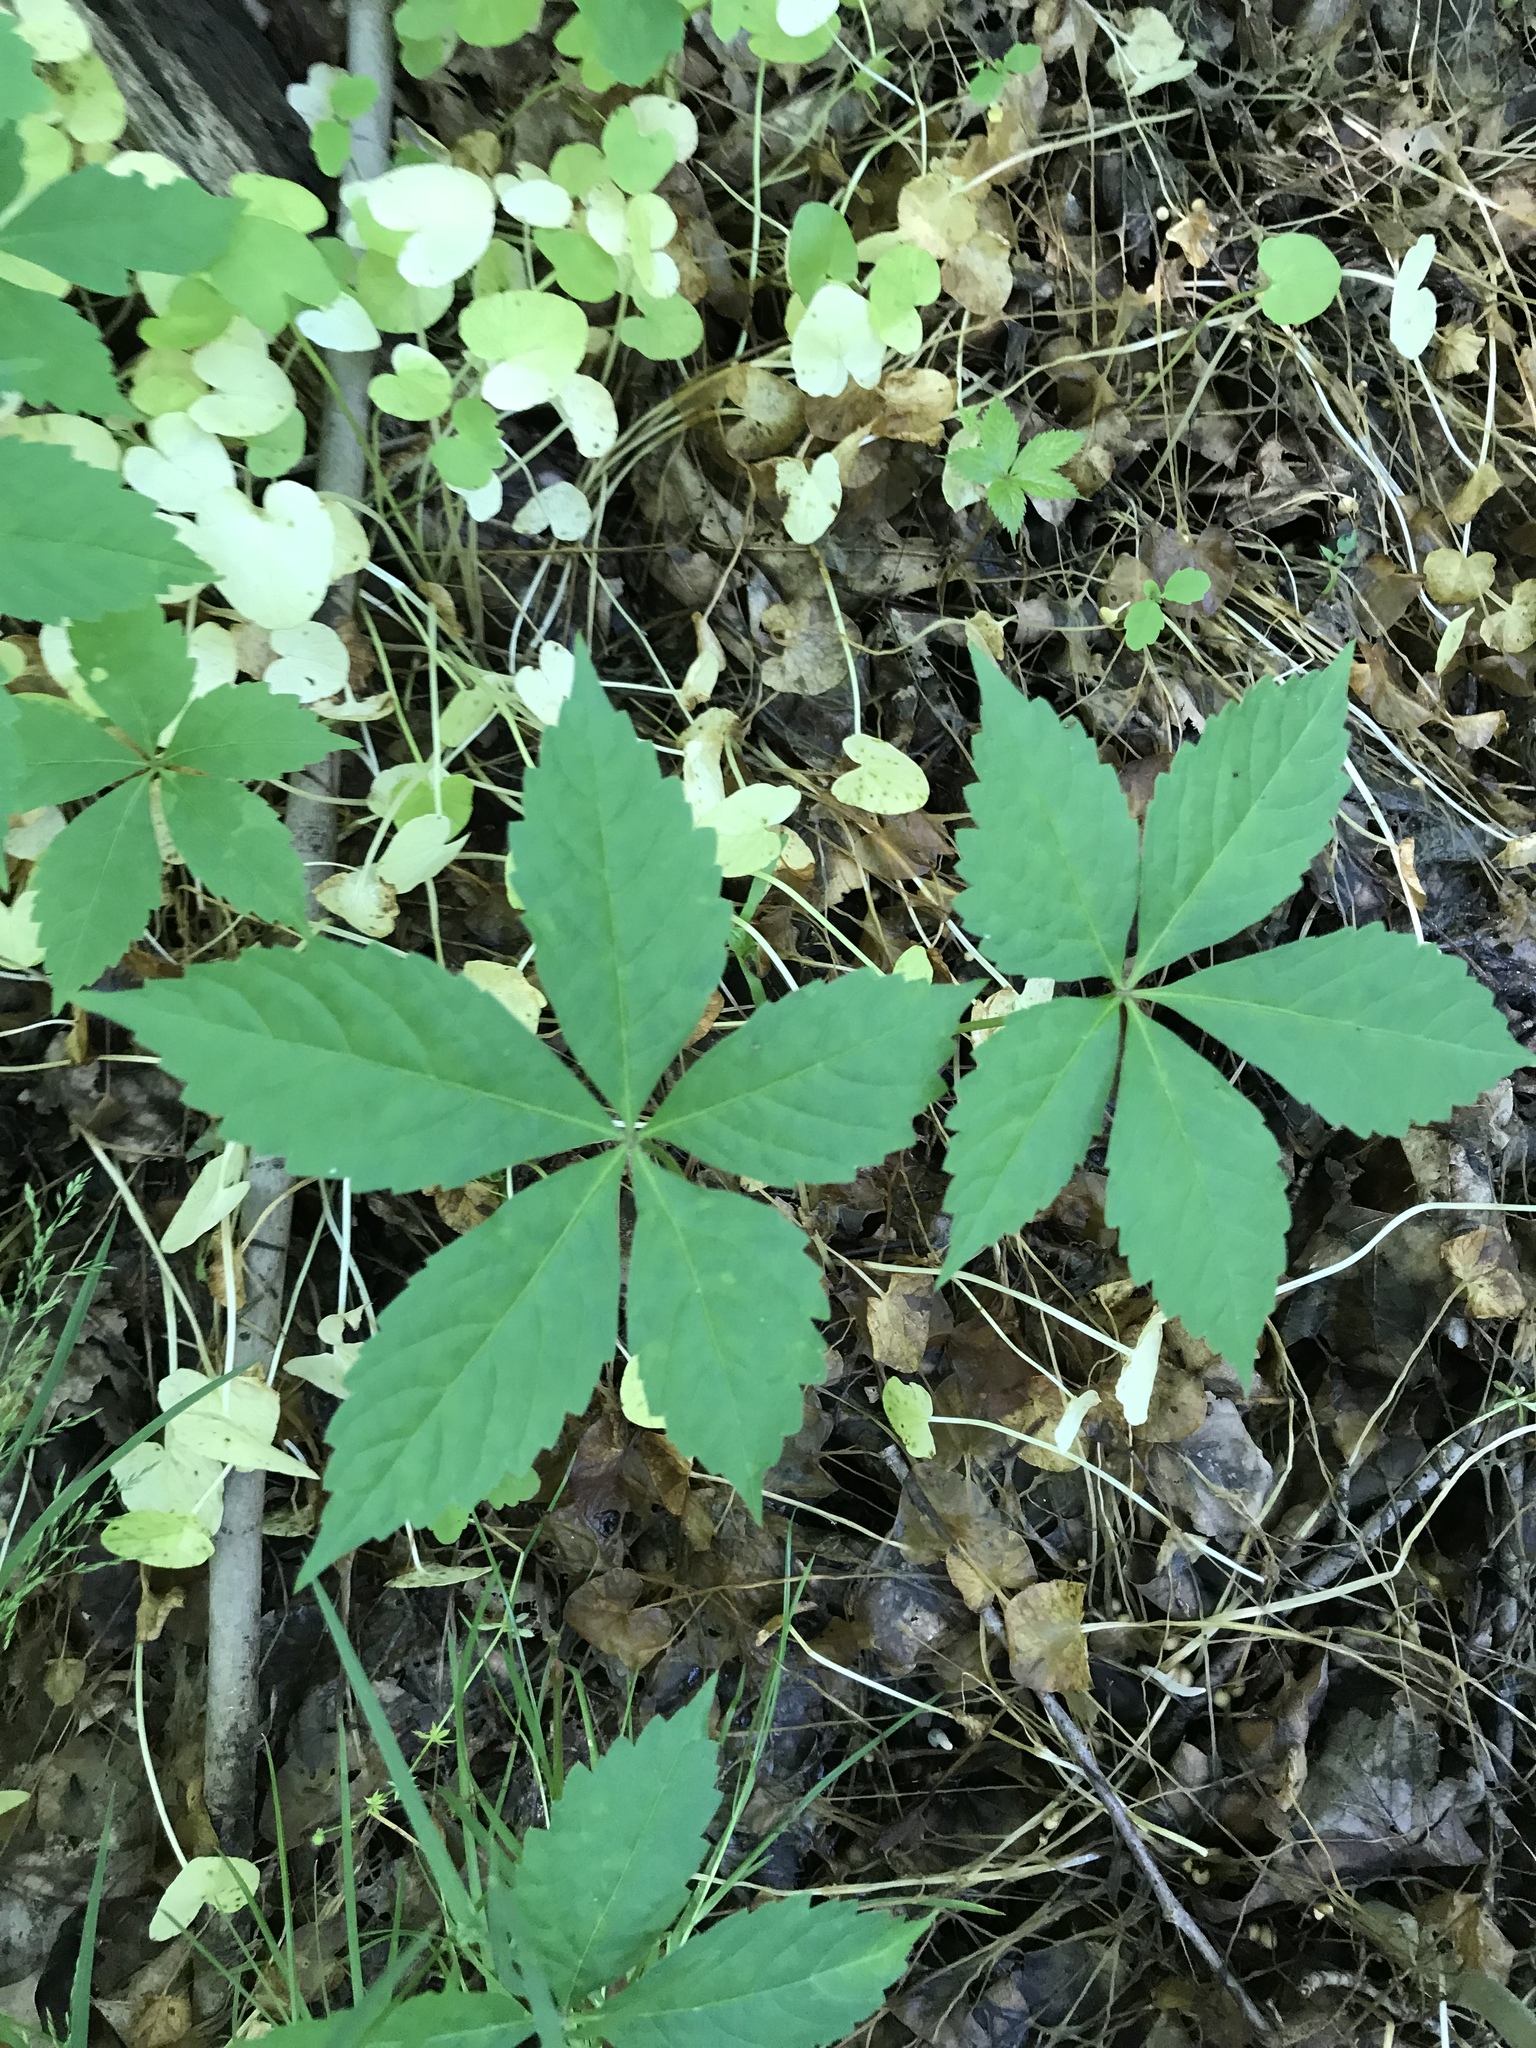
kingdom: Plantae
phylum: Tracheophyta
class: Magnoliopsida
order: Vitales
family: Vitaceae
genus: Parthenocissus
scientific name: Parthenocissus quinquefolia
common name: Virginia-creeper
